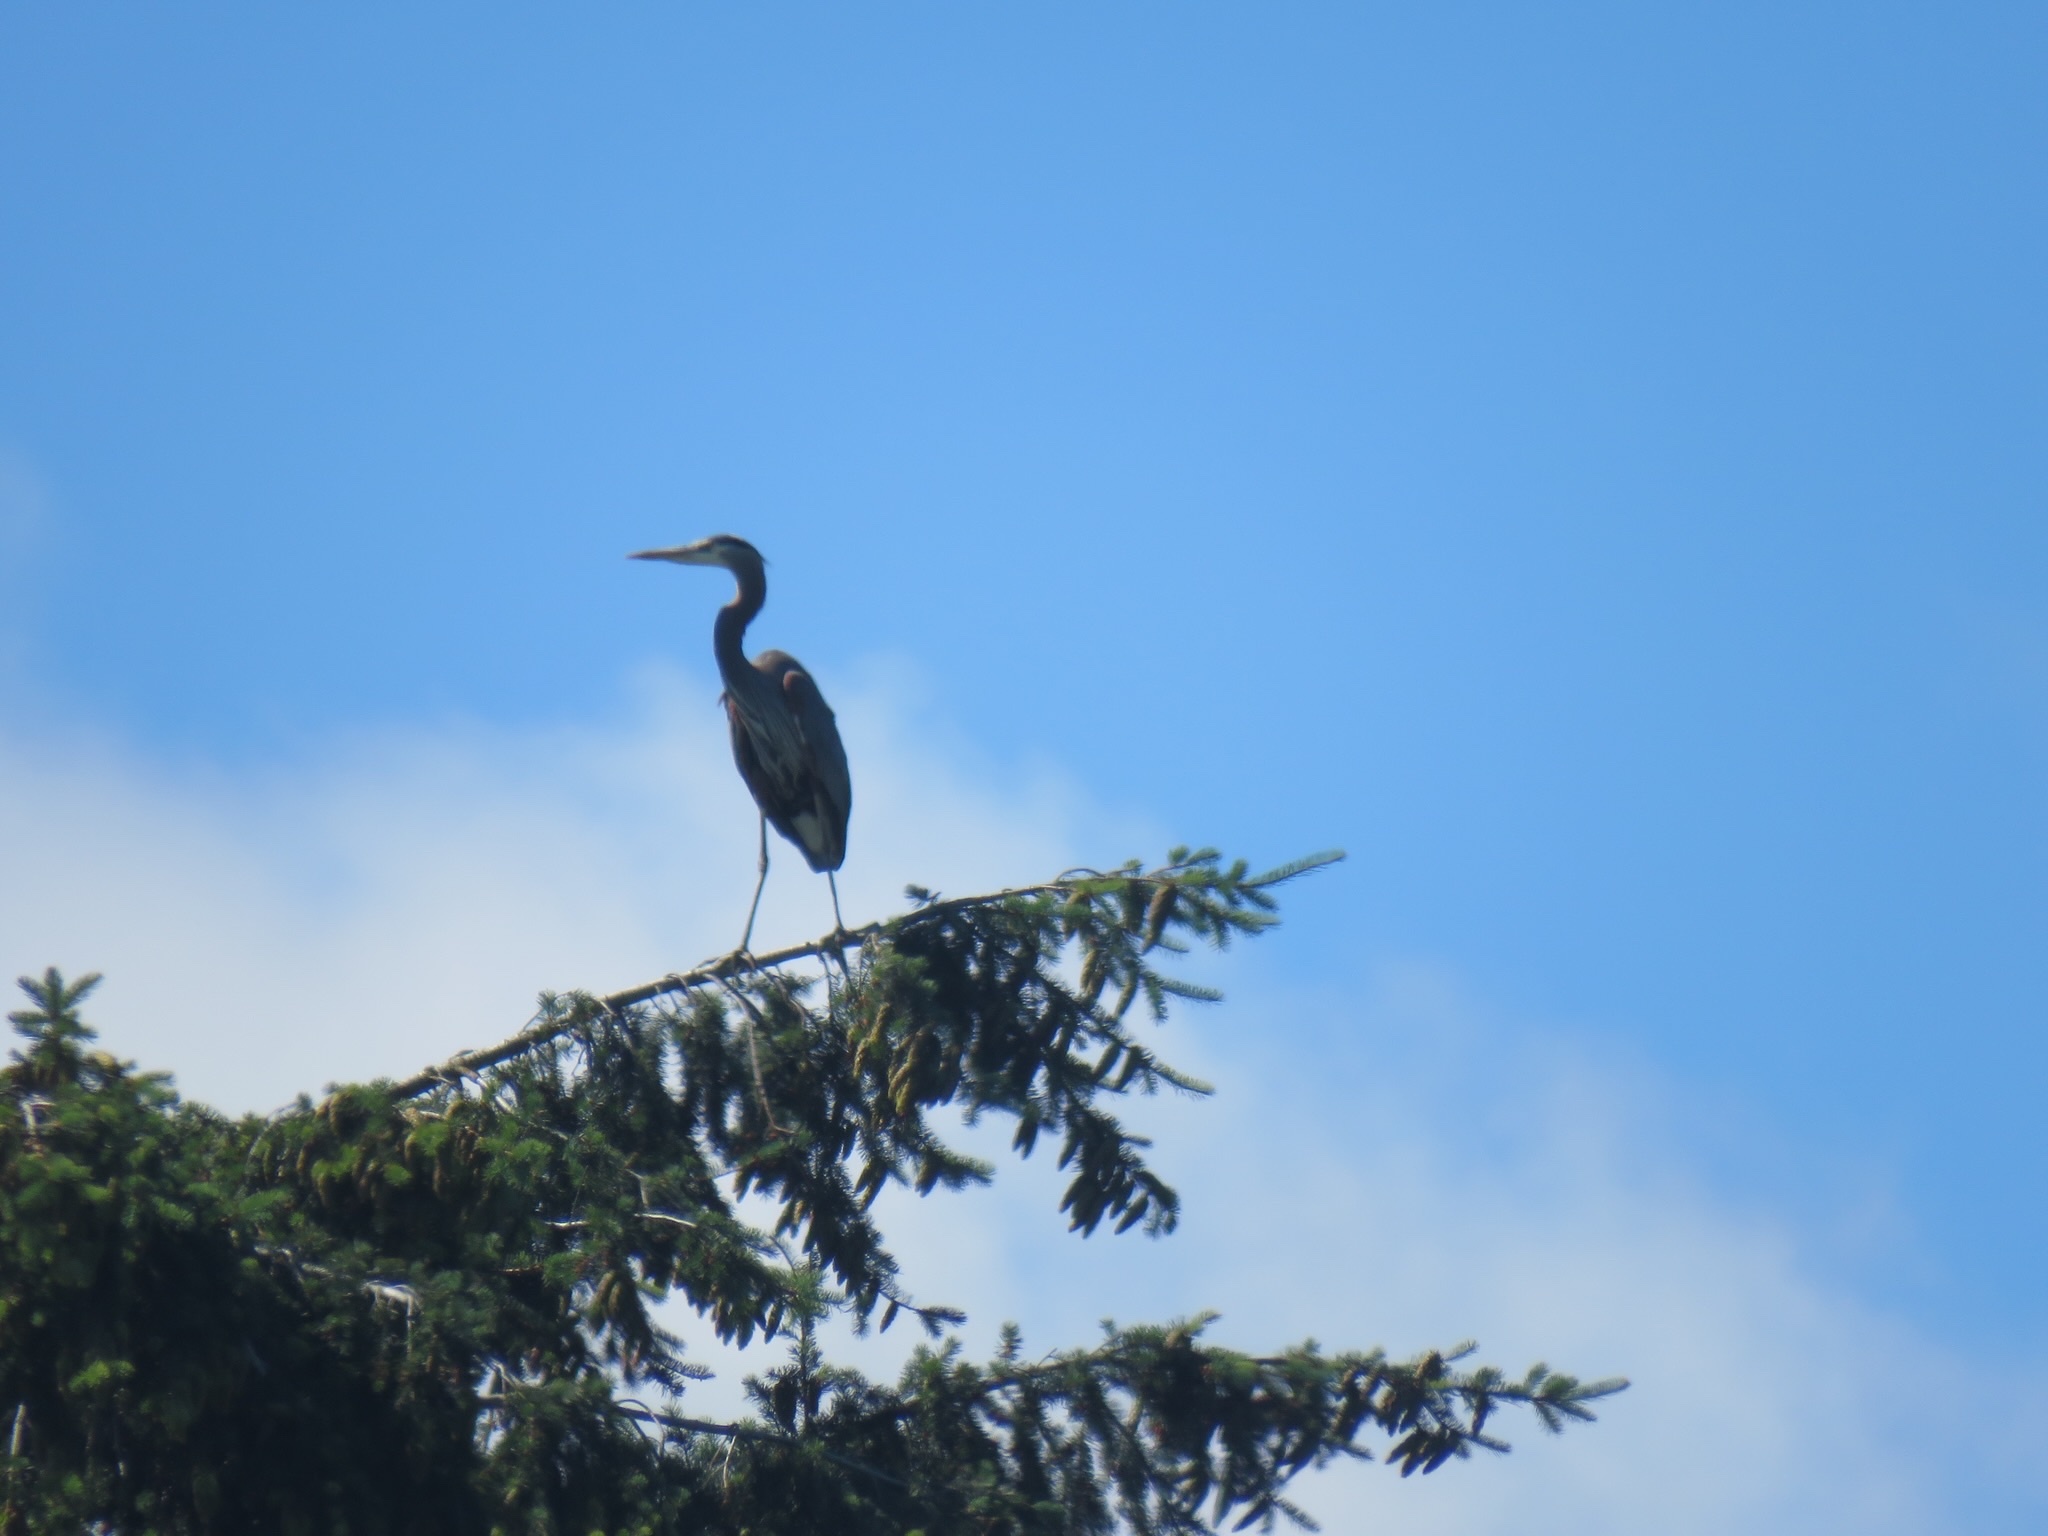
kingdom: Animalia
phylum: Chordata
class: Aves
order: Pelecaniformes
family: Ardeidae
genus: Ardea
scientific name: Ardea herodias
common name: Great blue heron
